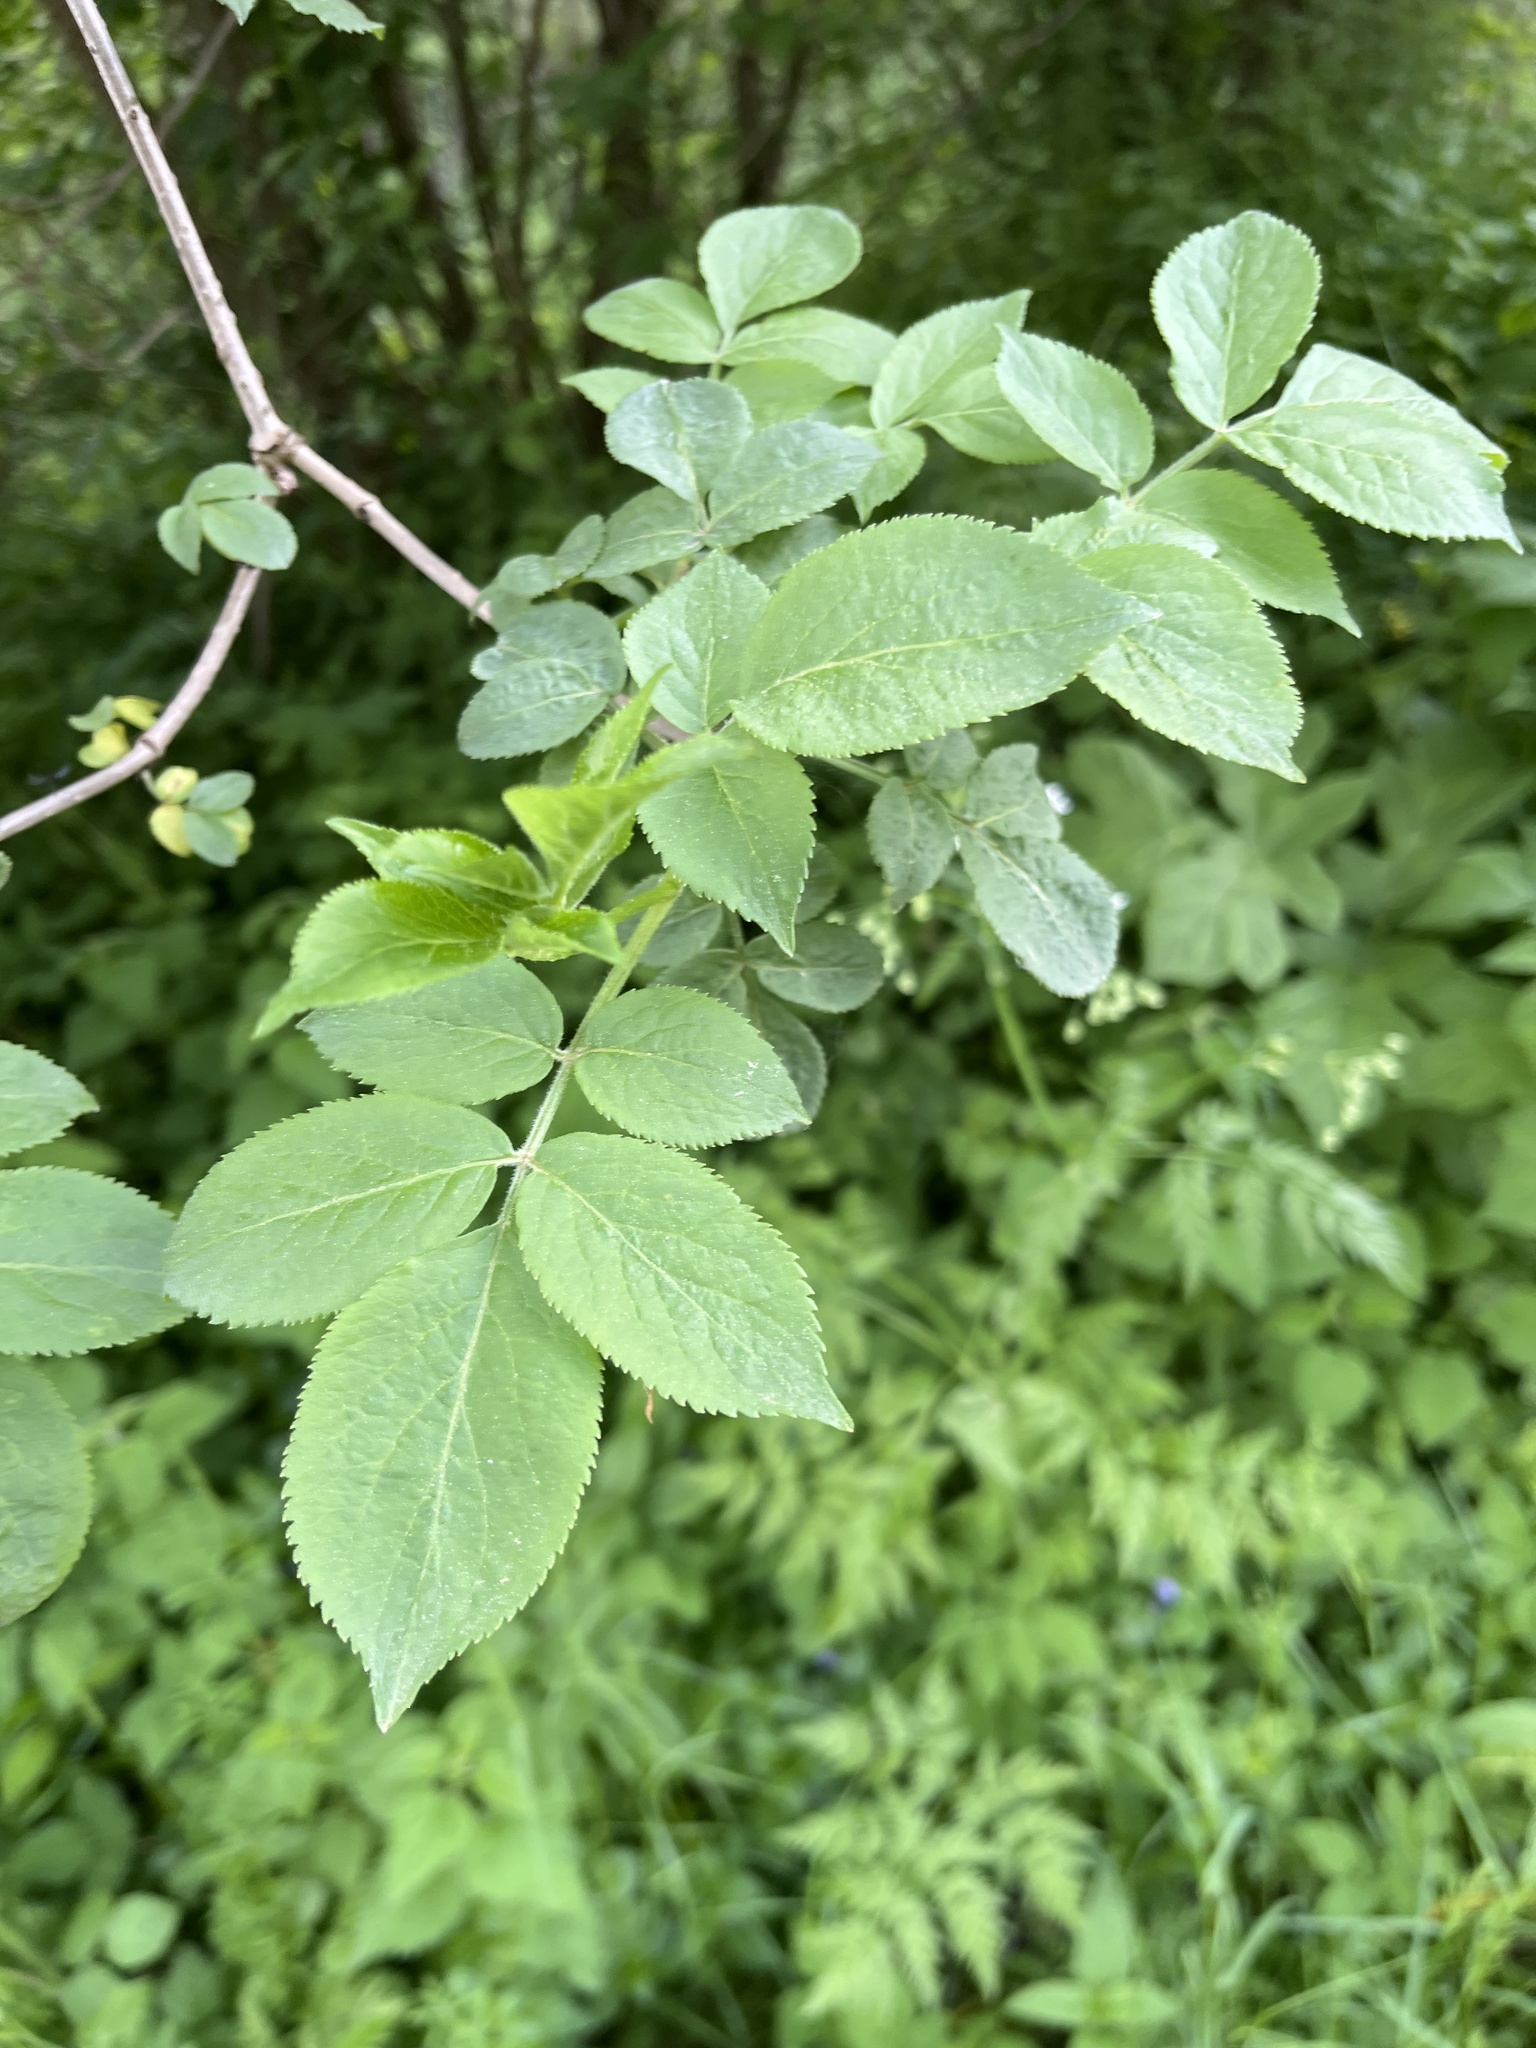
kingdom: Plantae
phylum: Tracheophyta
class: Magnoliopsida
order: Dipsacales
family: Viburnaceae
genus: Sambucus
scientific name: Sambucus nigra
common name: Elder
